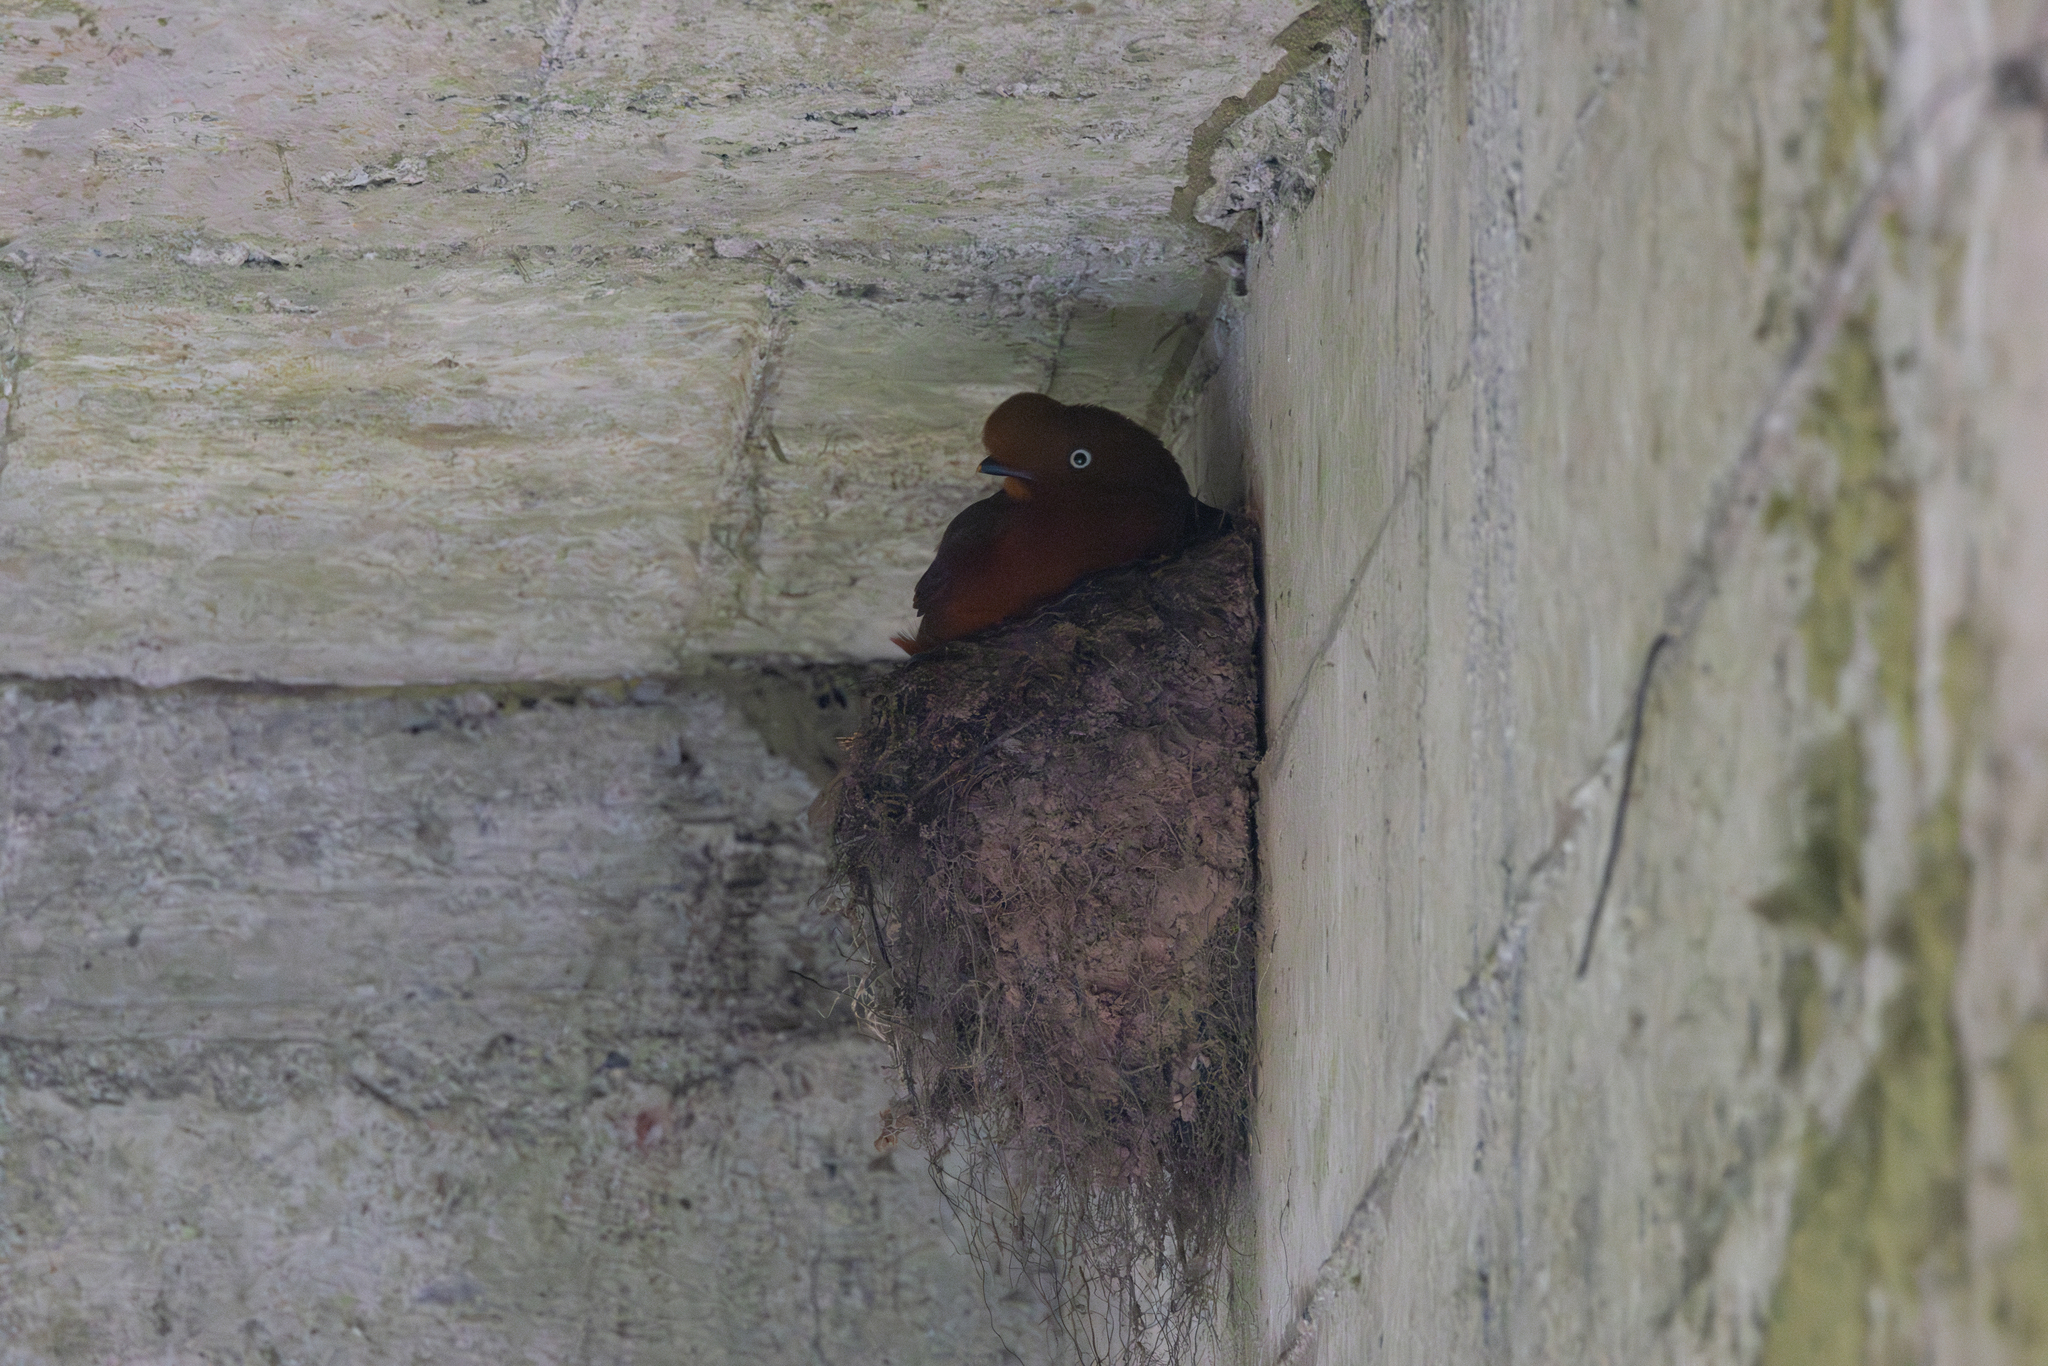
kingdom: Animalia
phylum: Chordata
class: Aves
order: Passeriformes
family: Cotingidae
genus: Rupicola
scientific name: Rupicola peruvianus
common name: Andean cock-of-the-rock
